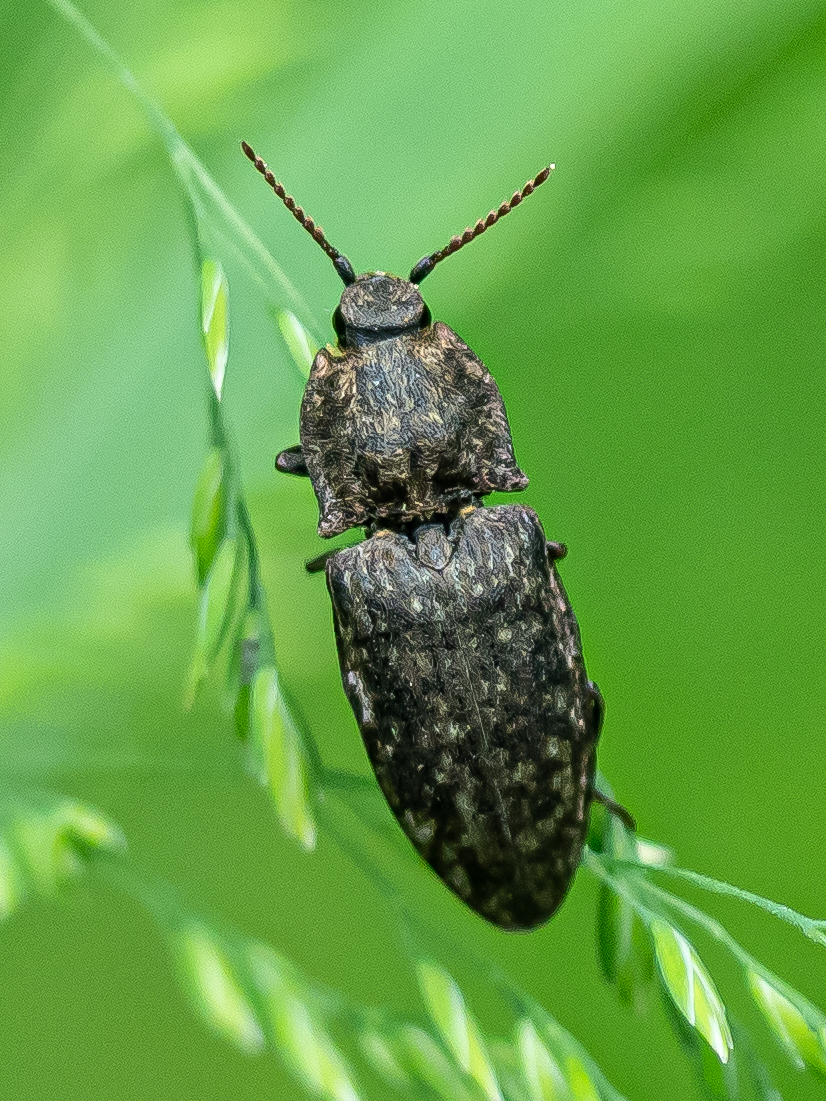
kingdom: Animalia
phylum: Arthropoda
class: Insecta
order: Coleoptera
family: Elateridae
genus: Agrypnus
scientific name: Agrypnus murinus
